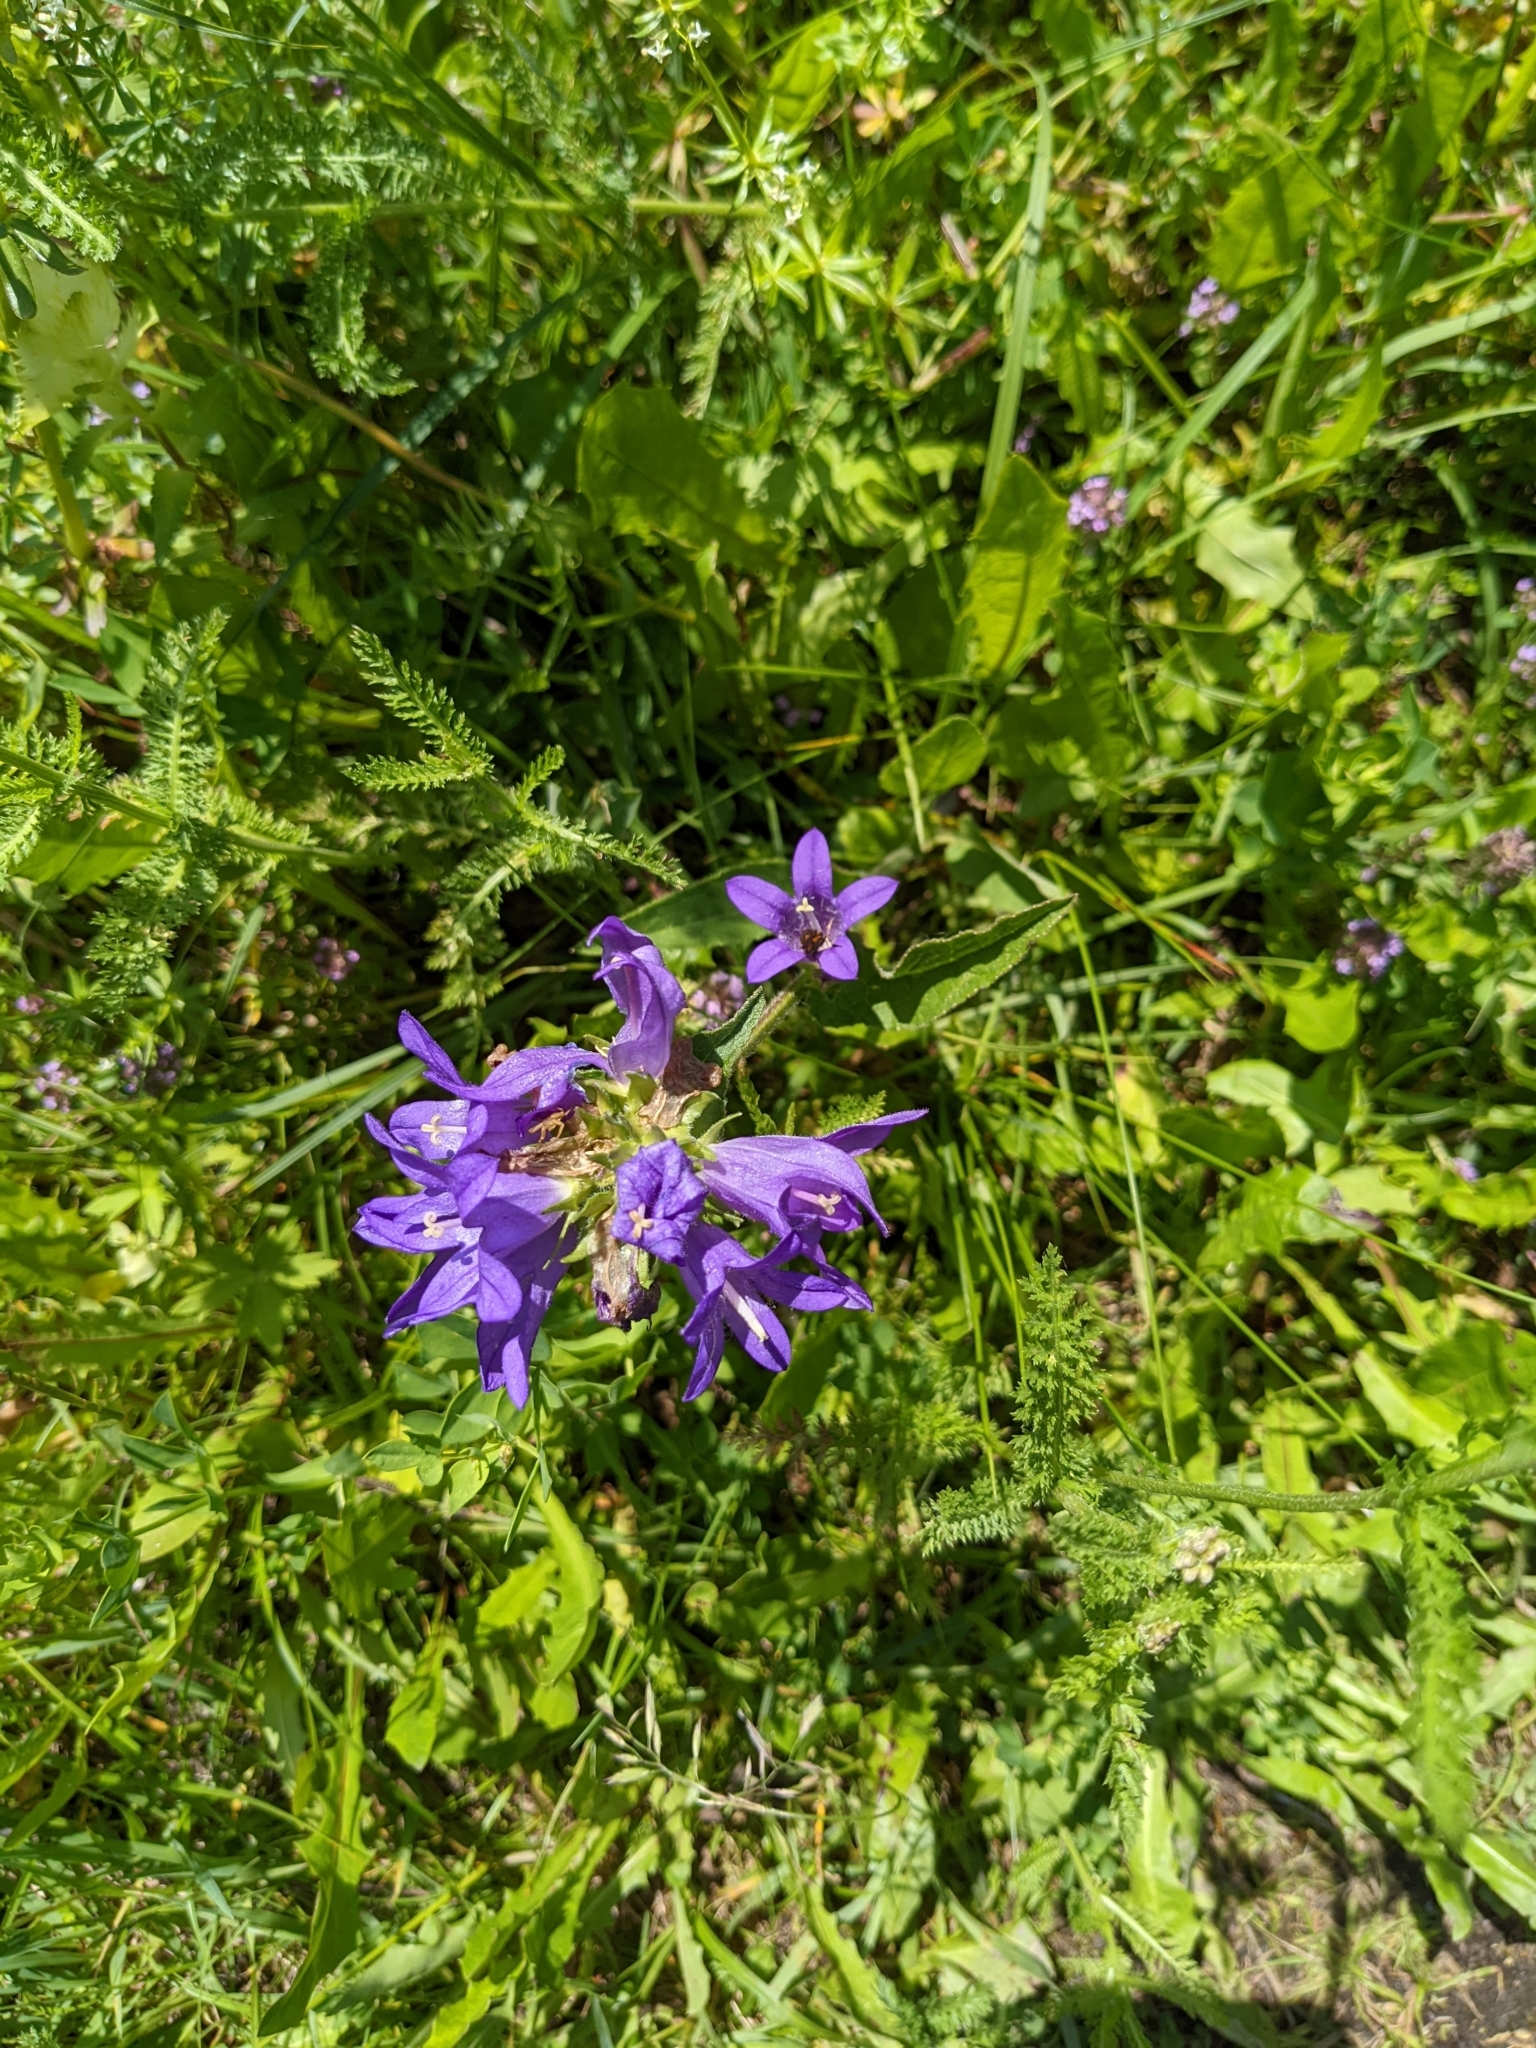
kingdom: Plantae
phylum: Tracheophyta
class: Magnoliopsida
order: Asterales
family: Campanulaceae
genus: Campanula
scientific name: Campanula glomerata
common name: Clustered bellflower
